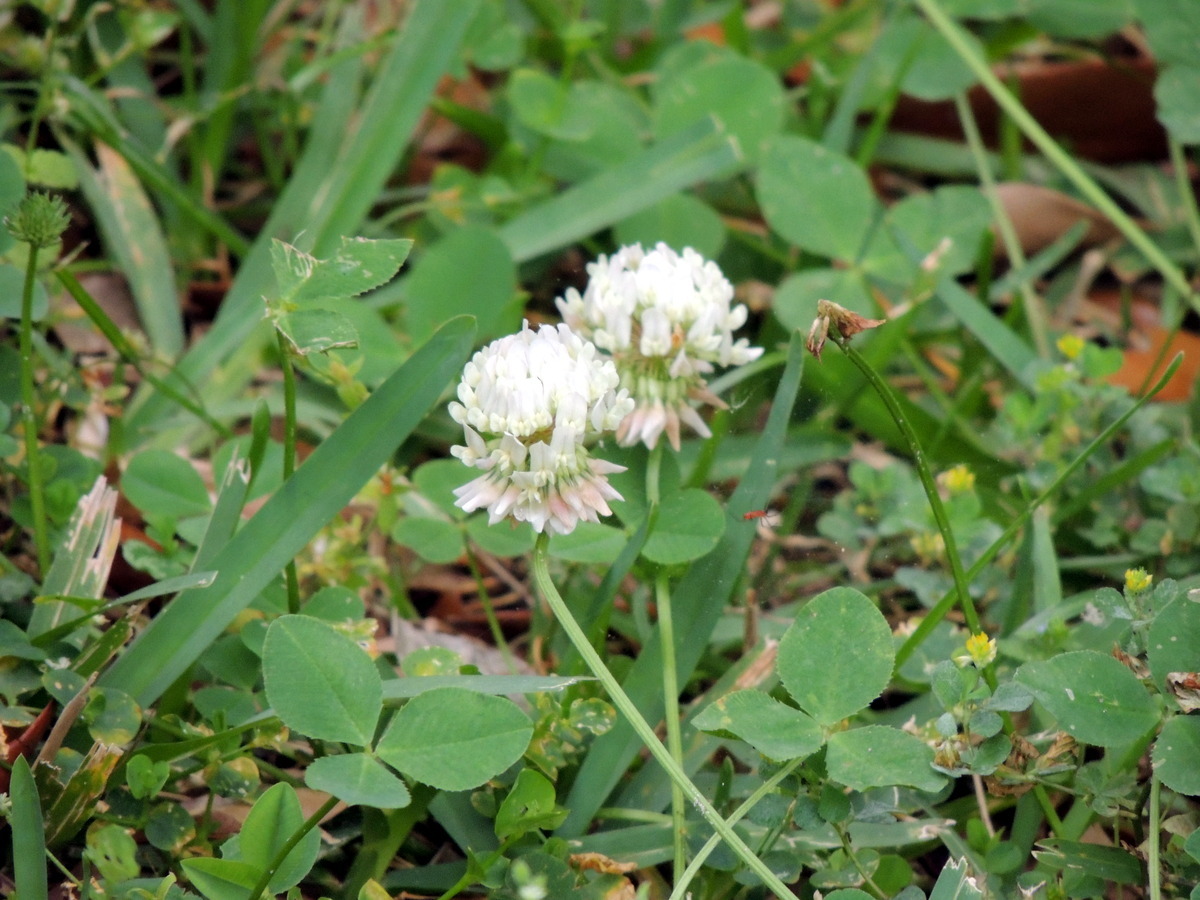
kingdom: Plantae
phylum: Tracheophyta
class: Magnoliopsida
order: Fabales
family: Fabaceae
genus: Trifolium
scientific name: Trifolium repens
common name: White clover
